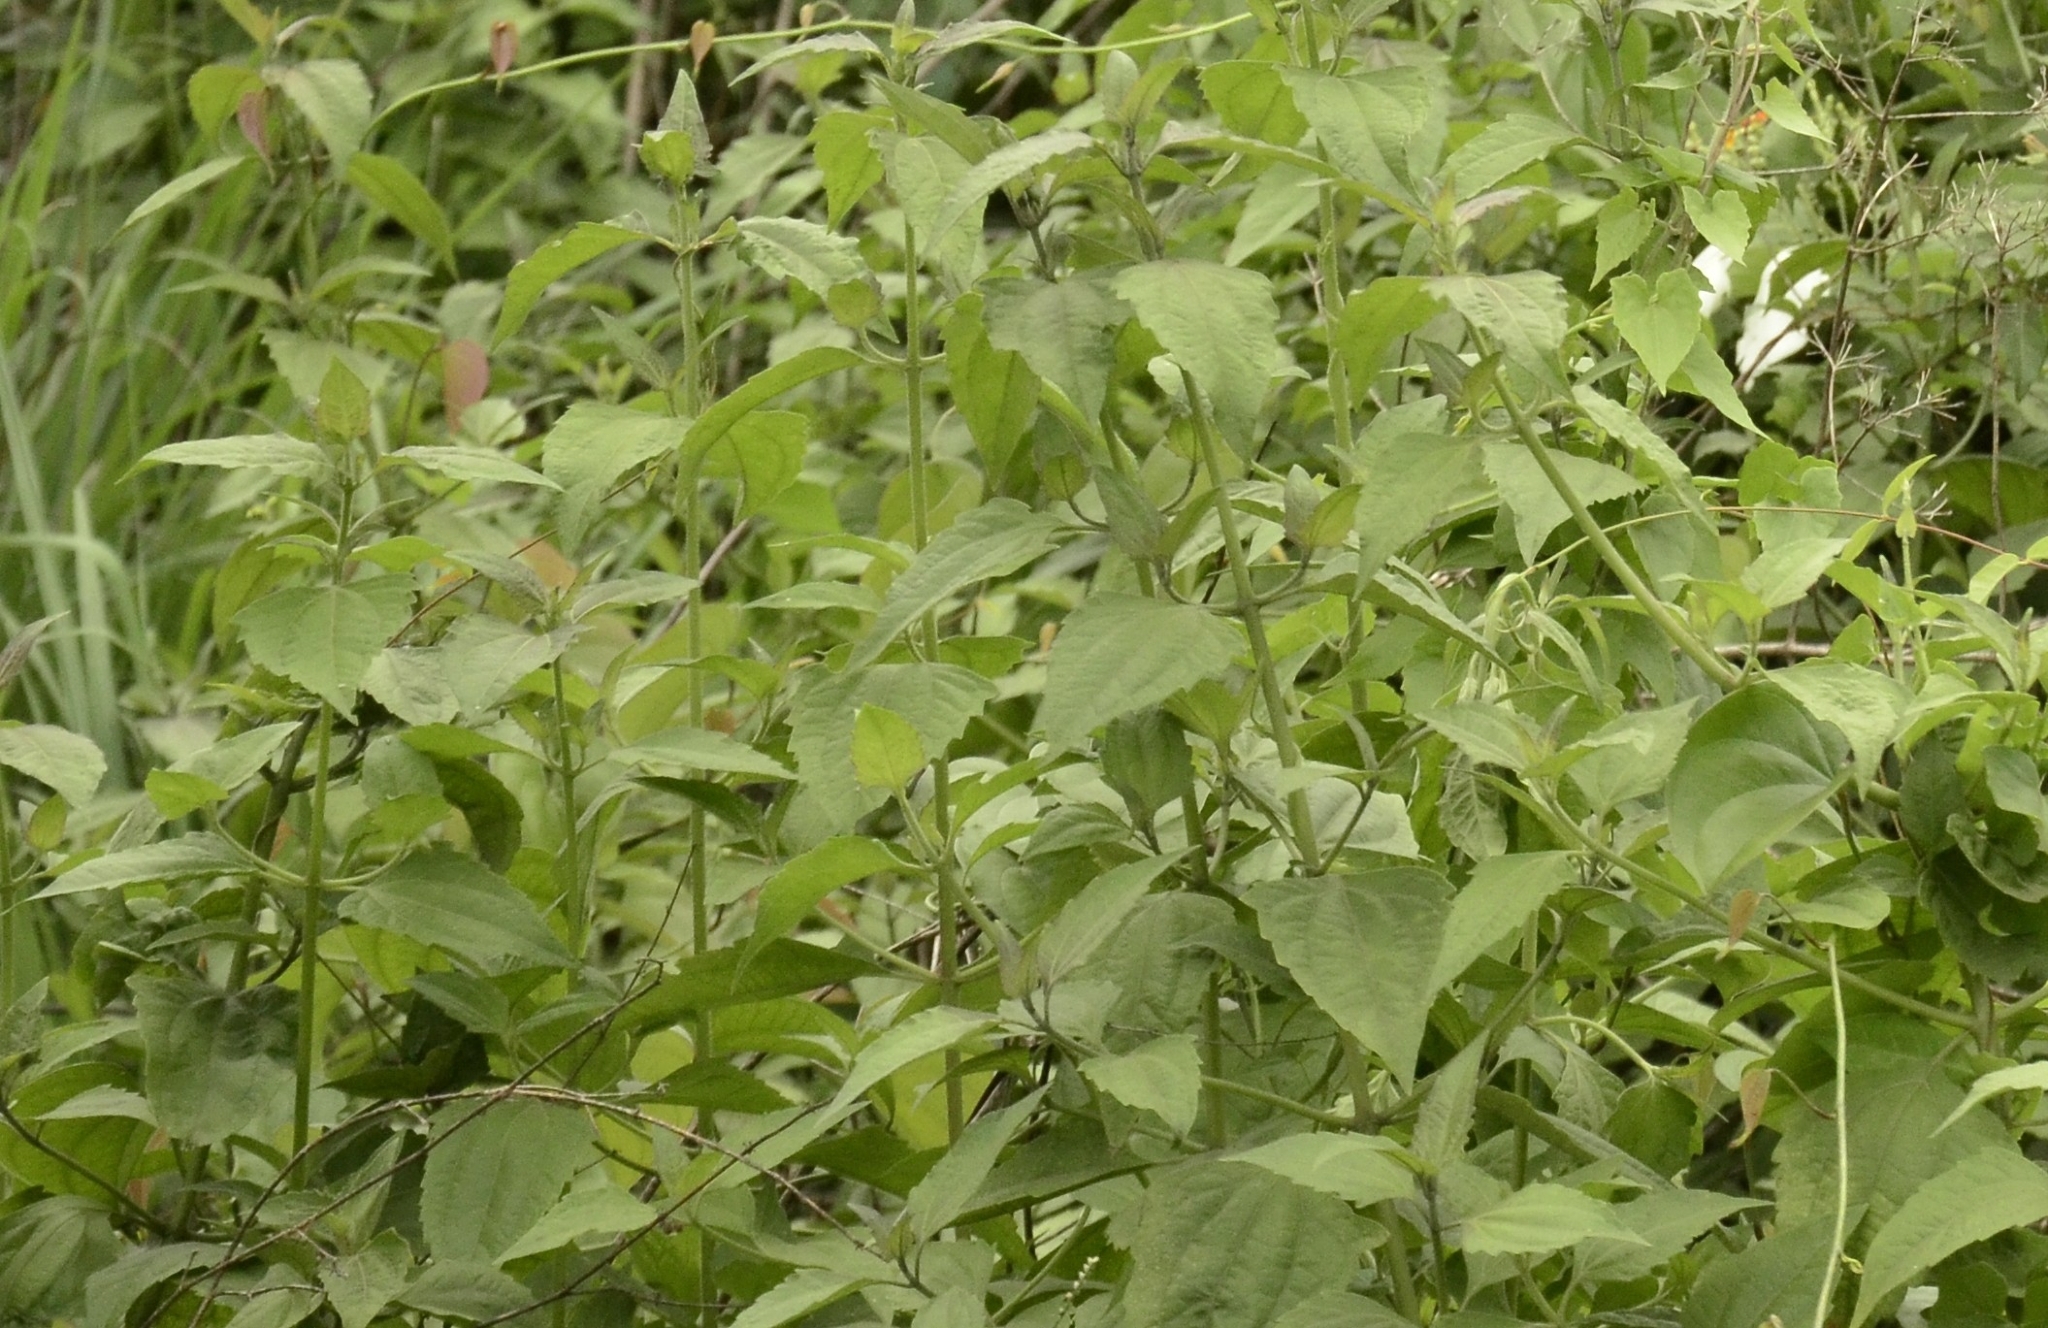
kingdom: Plantae
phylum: Tracheophyta
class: Magnoliopsida
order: Asterales
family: Asteraceae
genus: Chromolaena
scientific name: Chromolaena odorata
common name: Siamweed
